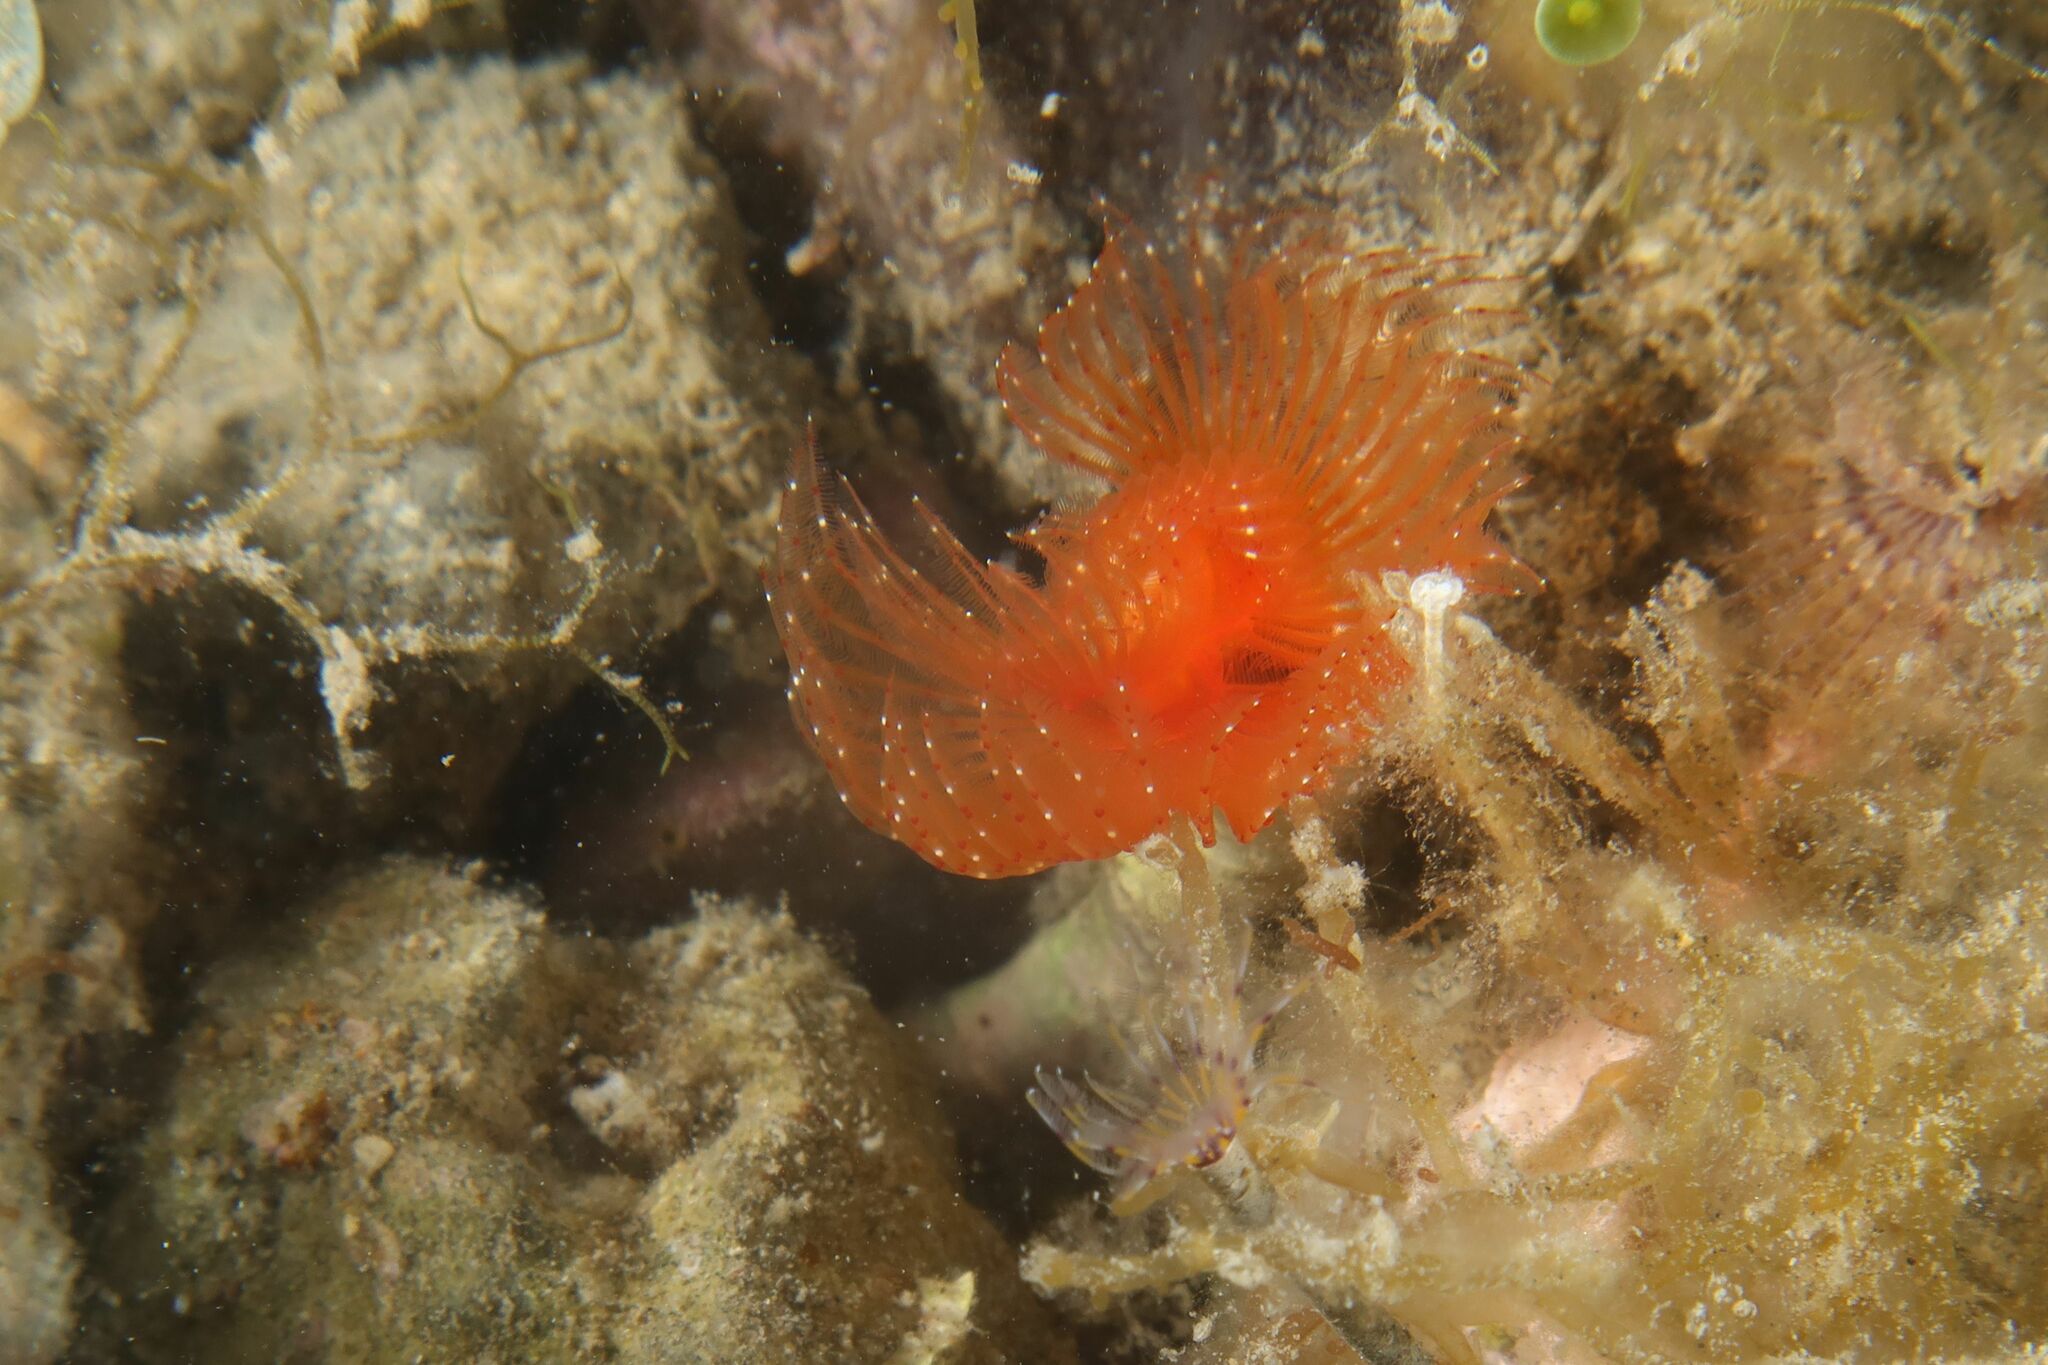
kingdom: Animalia
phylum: Annelida
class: Polychaeta
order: Sabellida
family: Serpulidae
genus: Protula
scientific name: Protula intestinum
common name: Blood-red tubeworm
